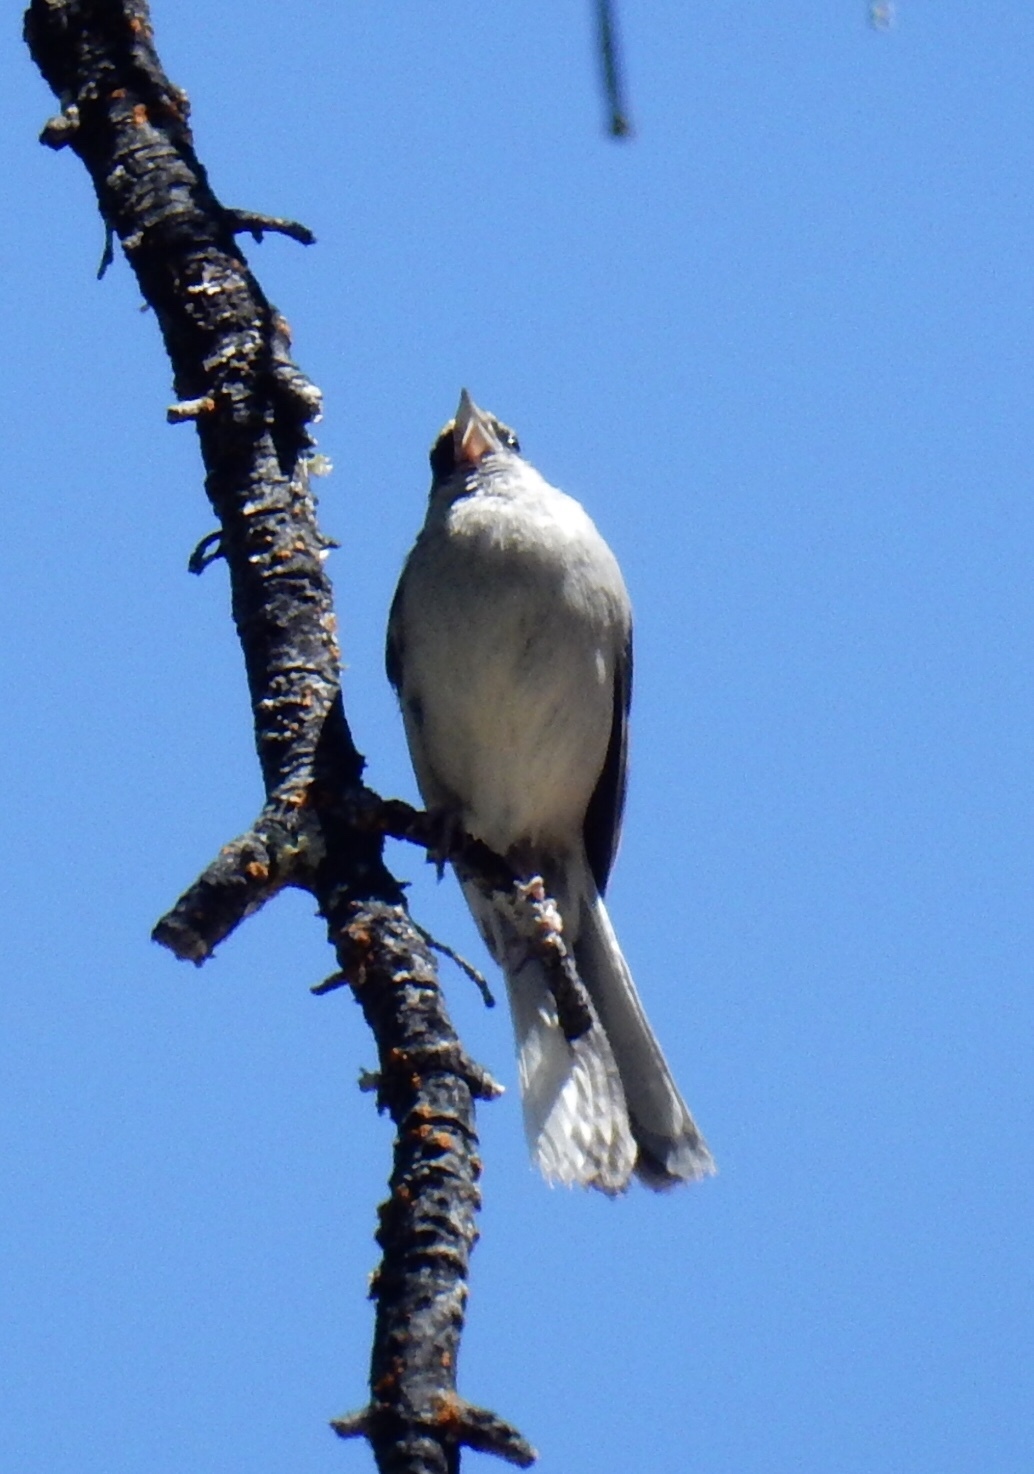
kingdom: Animalia
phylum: Chordata
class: Aves
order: Passeriformes
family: Passerellidae
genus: Junco
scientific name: Junco hyemalis
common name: Dark-eyed junco
